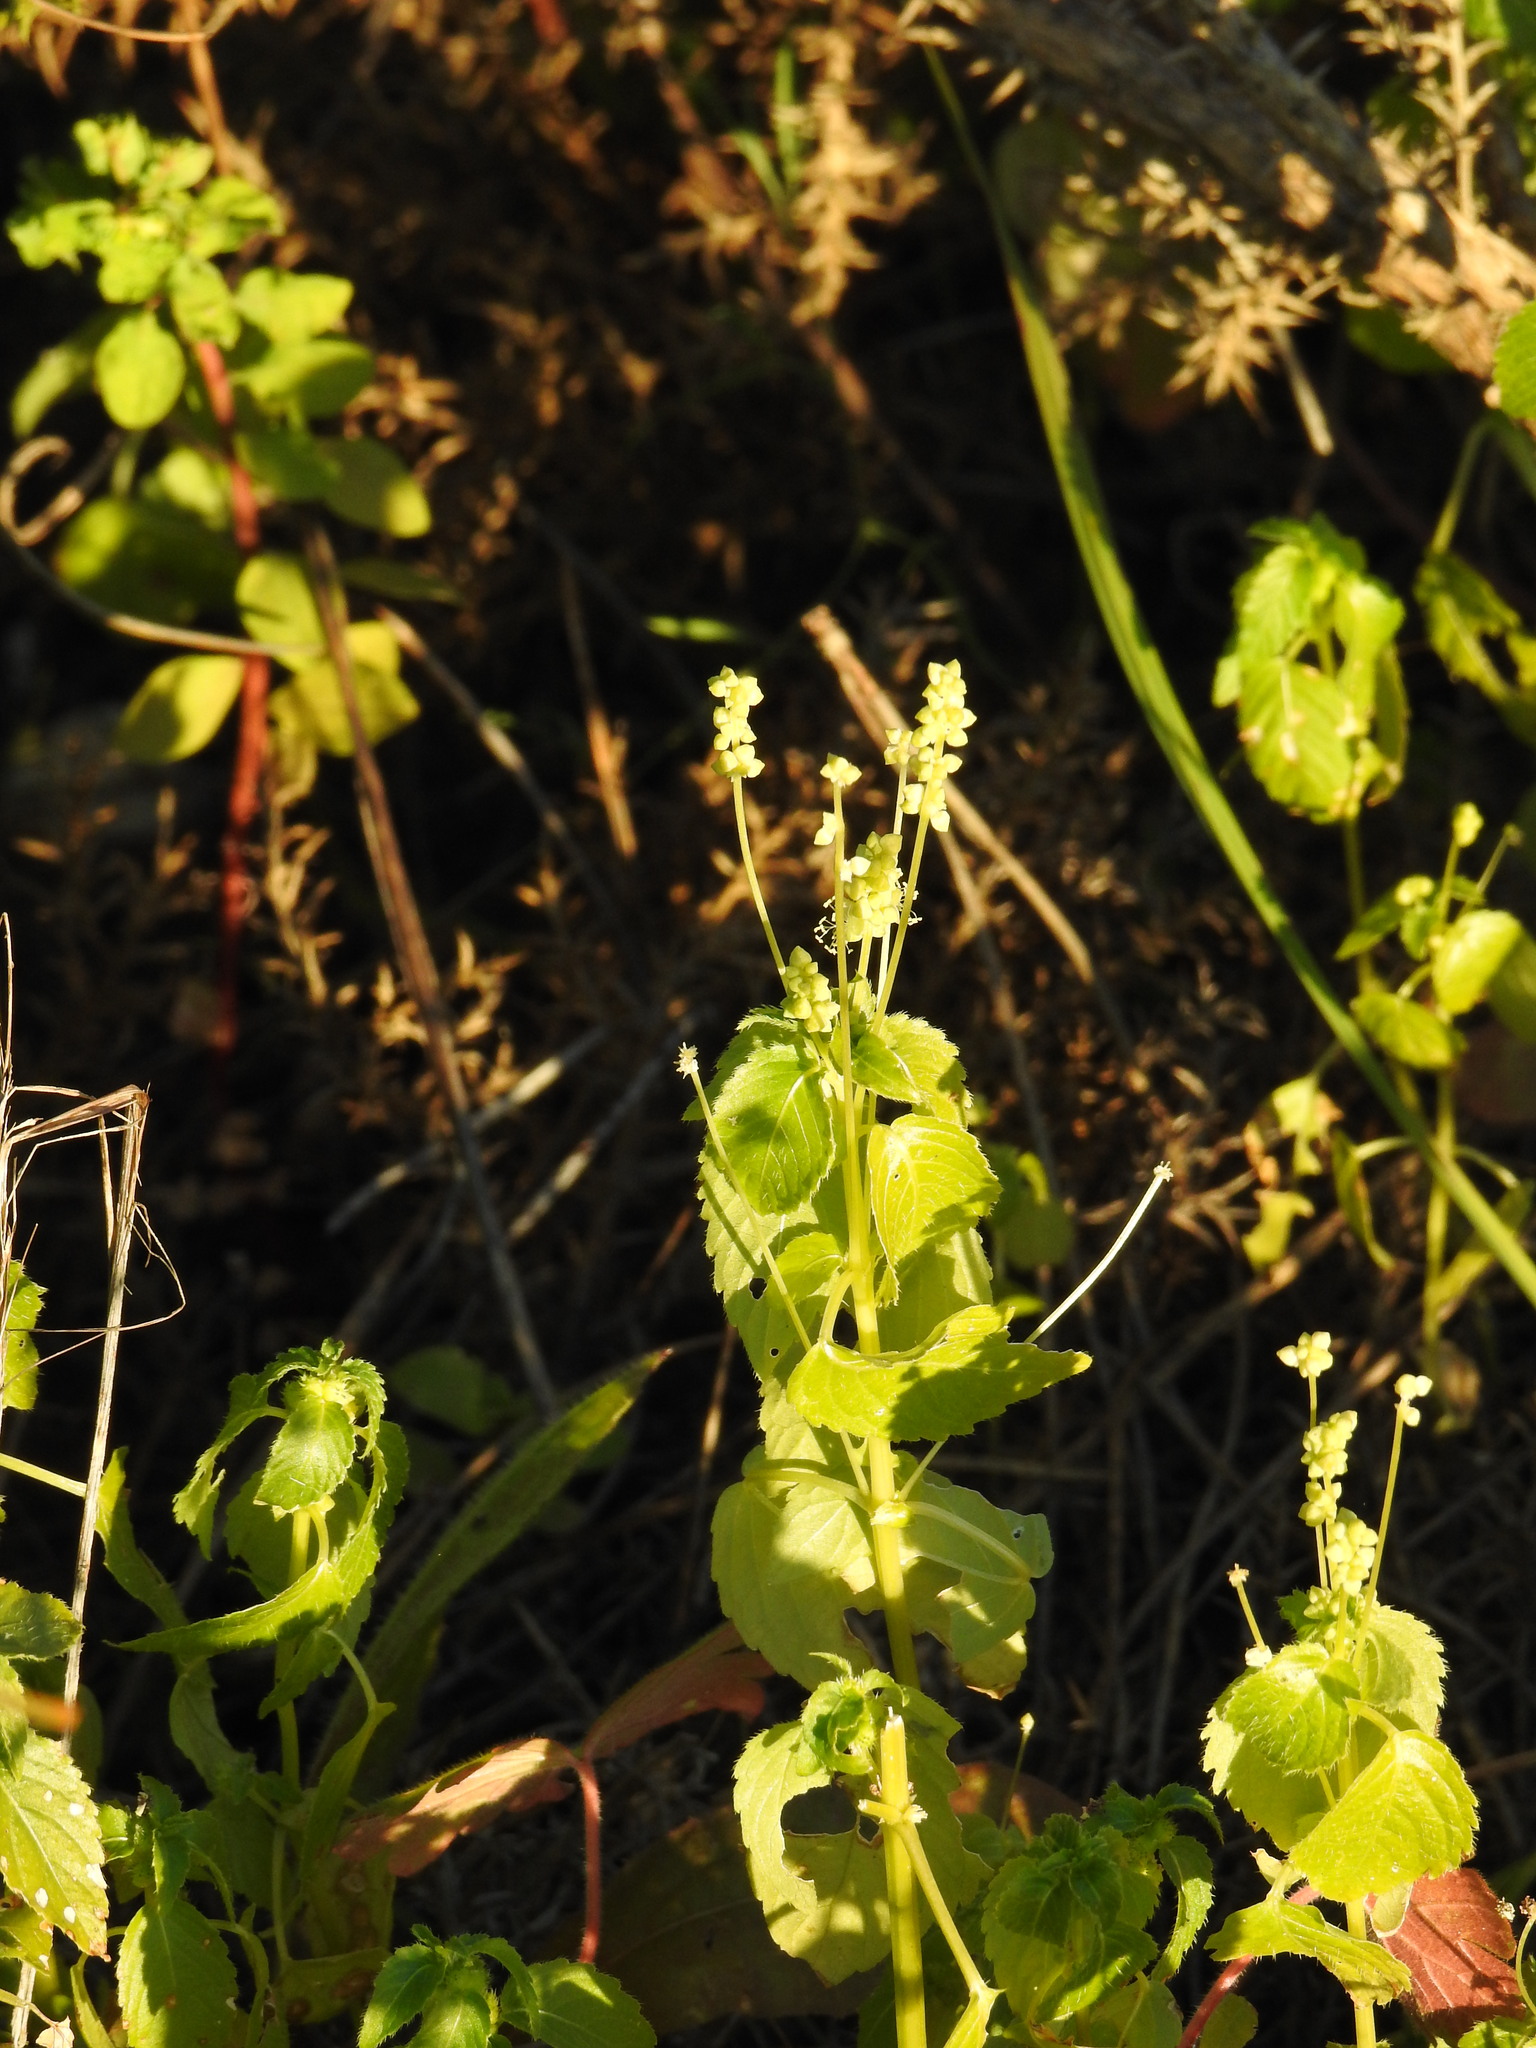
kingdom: Plantae
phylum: Tracheophyta
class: Magnoliopsida
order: Malpighiales
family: Euphorbiaceae
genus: Mercurialis
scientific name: Mercurialis annua
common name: Annual mercury
